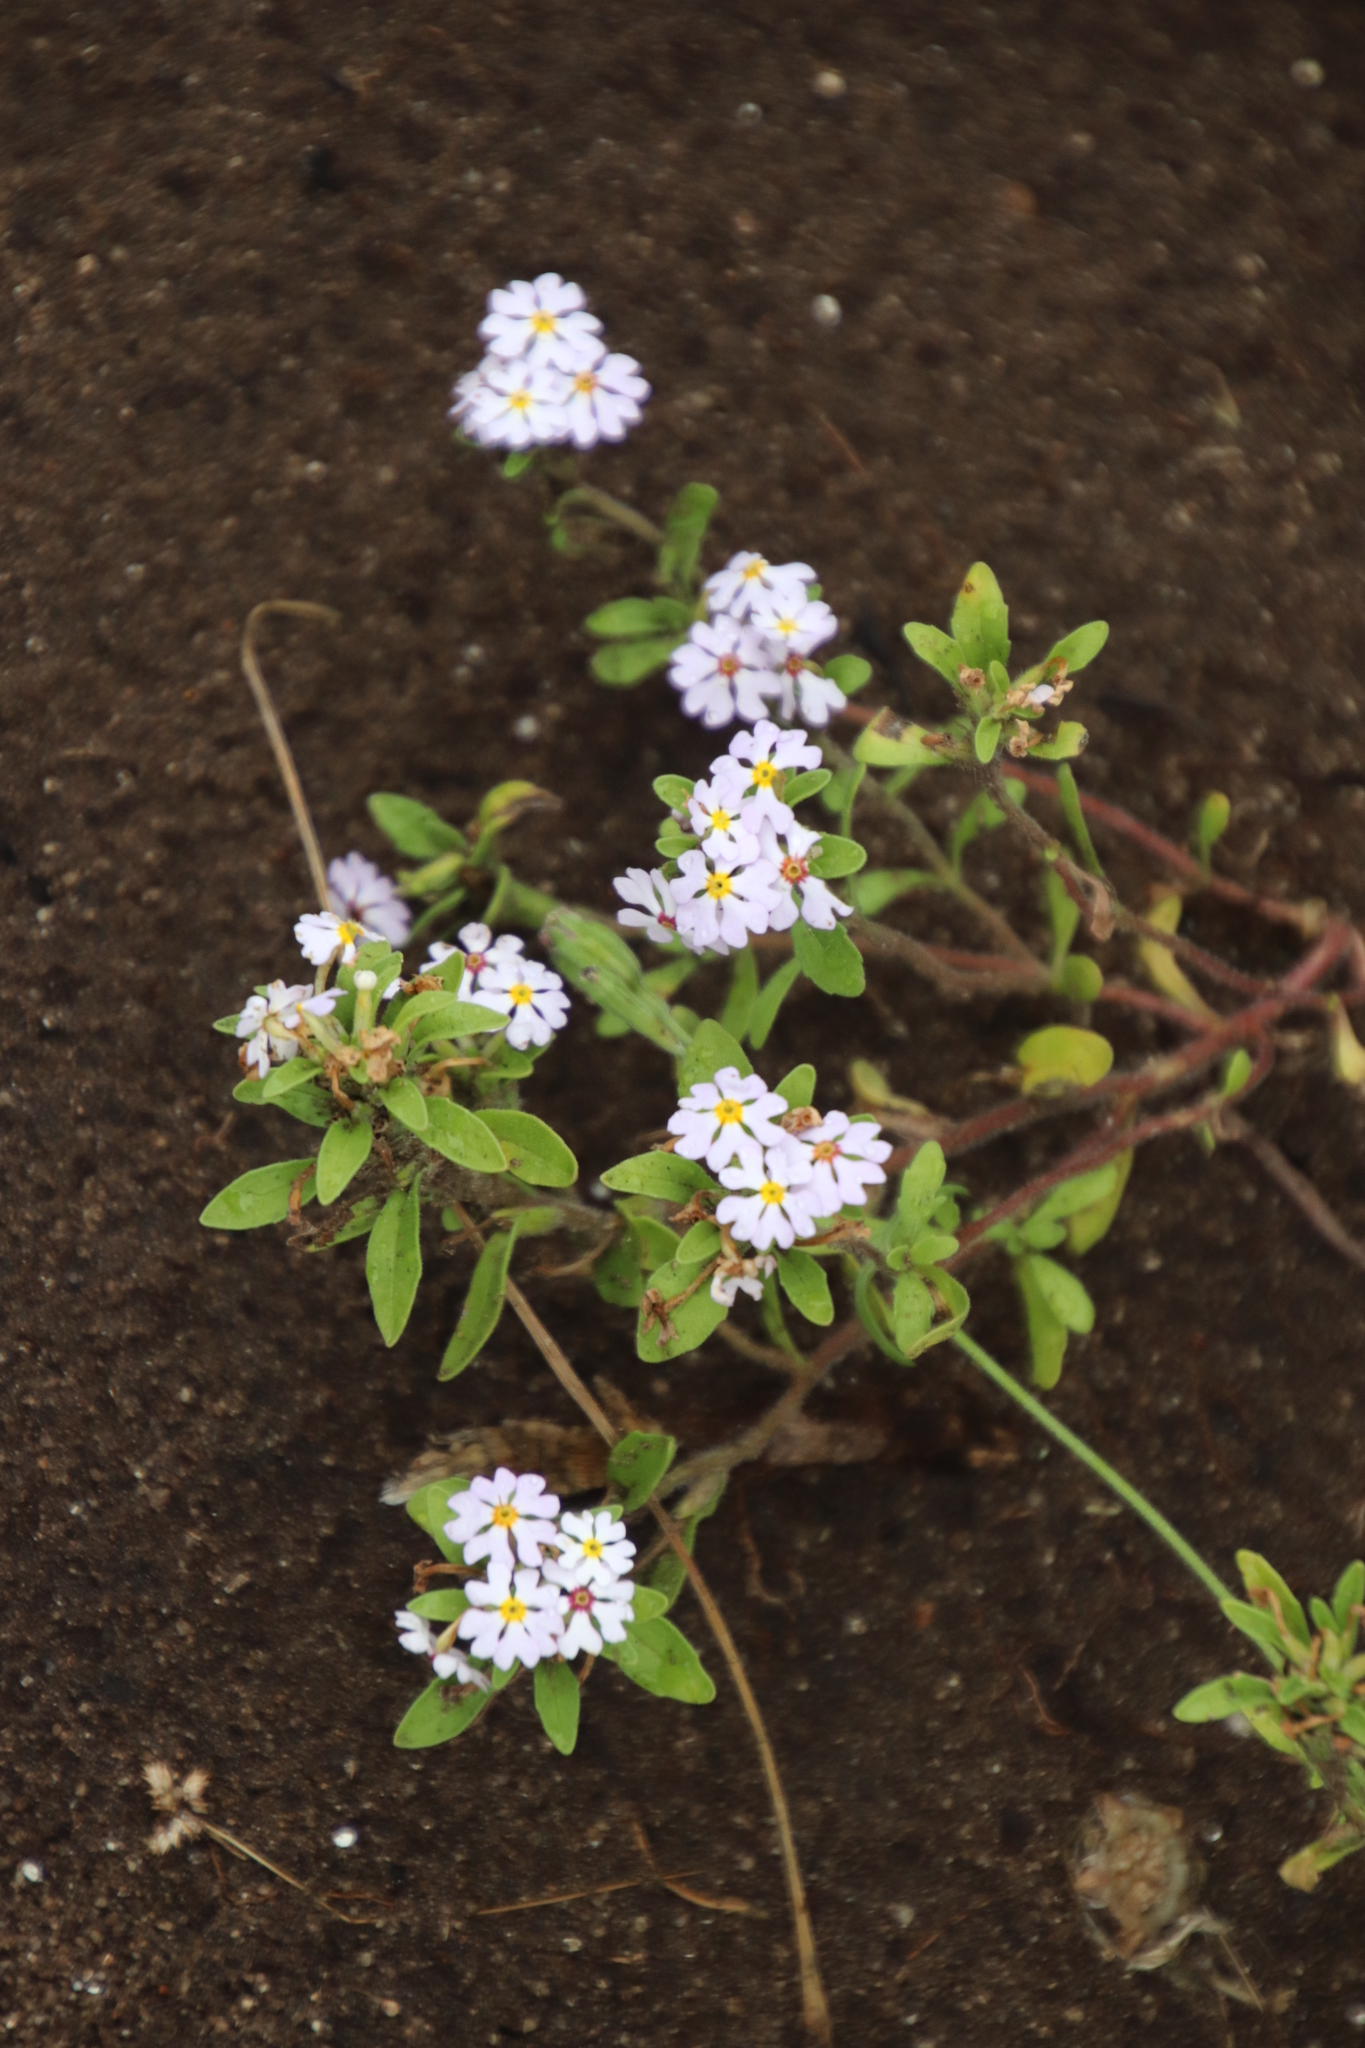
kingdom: Plantae
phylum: Tracheophyta
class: Magnoliopsida
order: Lamiales
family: Scrophulariaceae
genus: Zaluzianskya
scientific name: Zaluzianskya villosa
